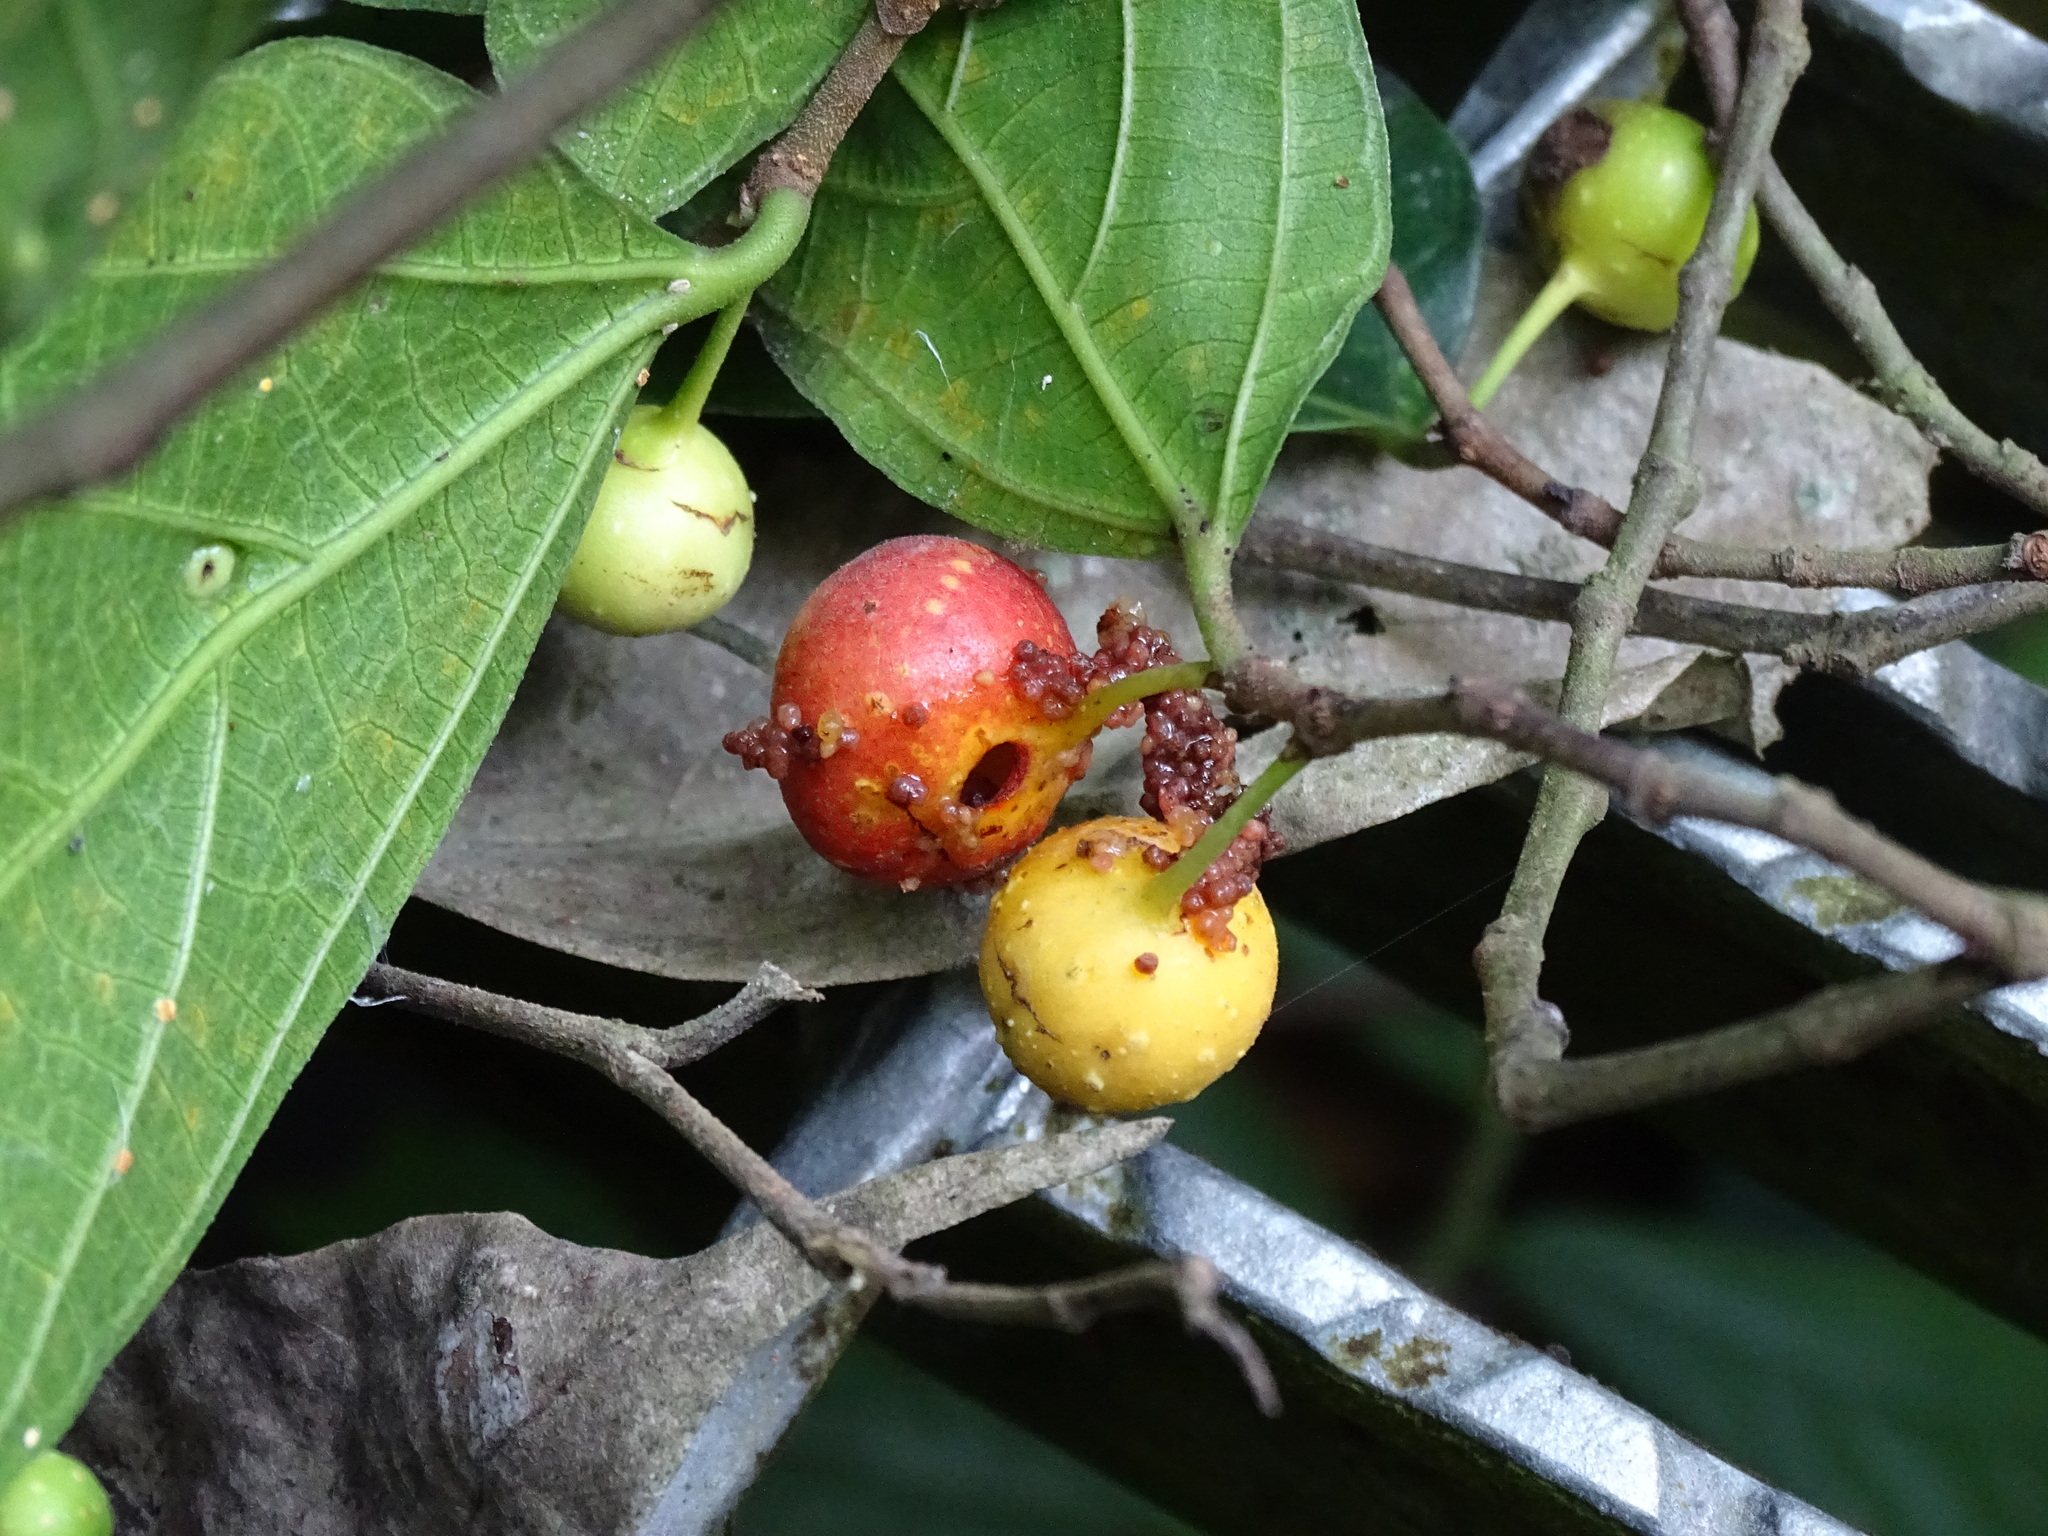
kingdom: Plantae
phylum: Tracheophyta
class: Magnoliopsida
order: Rosales
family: Moraceae
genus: Ficus
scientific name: Ficus ampelos
